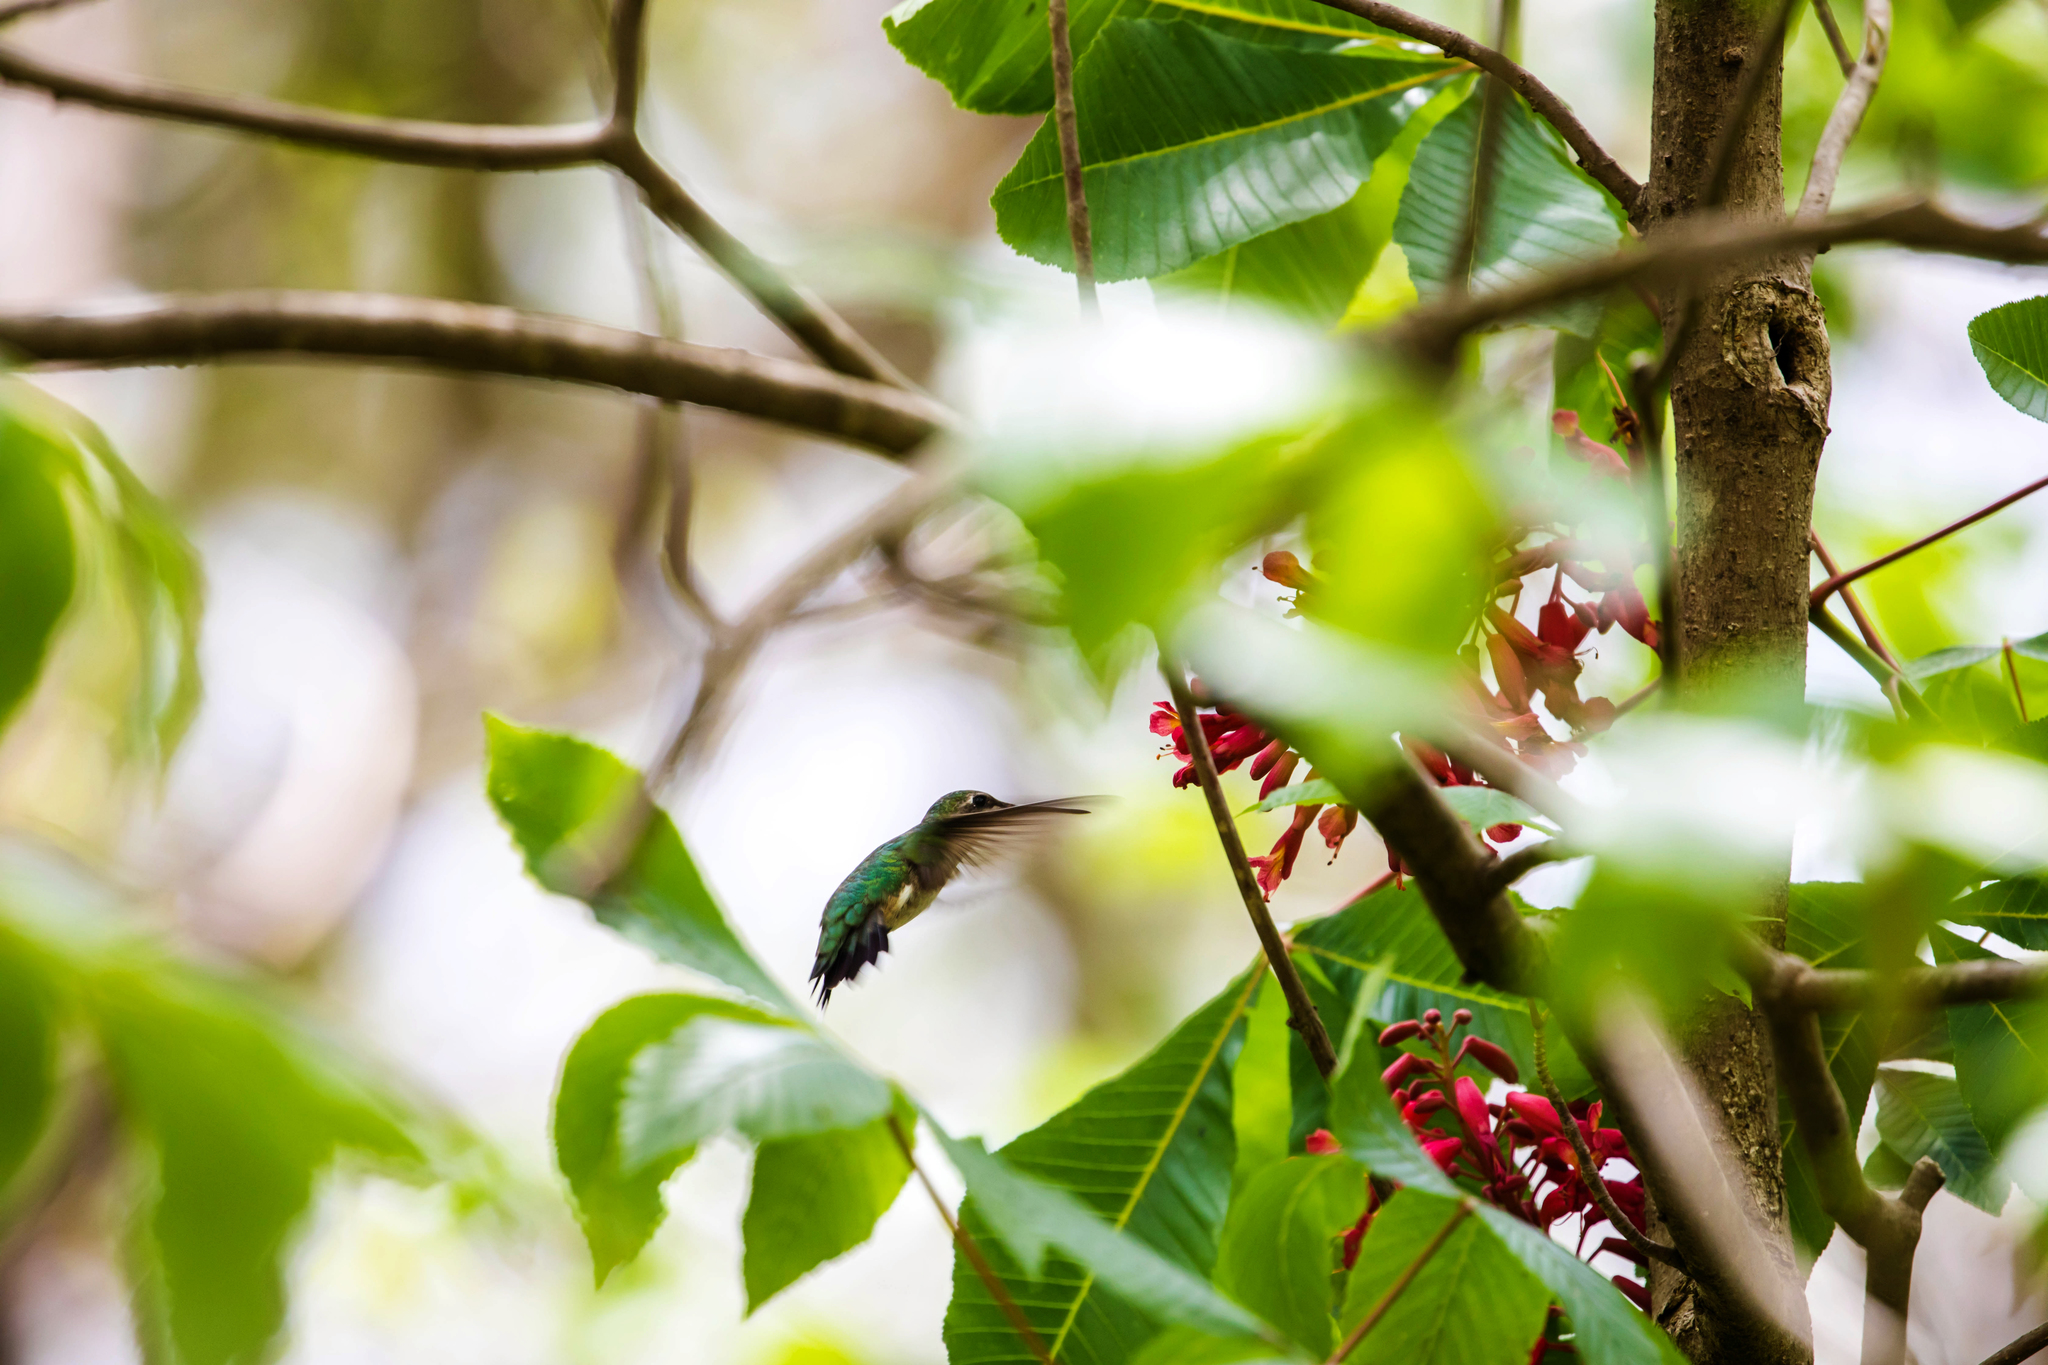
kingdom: Animalia
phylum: Chordata
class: Aves
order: Apodiformes
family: Trochilidae
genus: Archilochus
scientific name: Archilochus colubris
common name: Ruby-throated hummingbird
